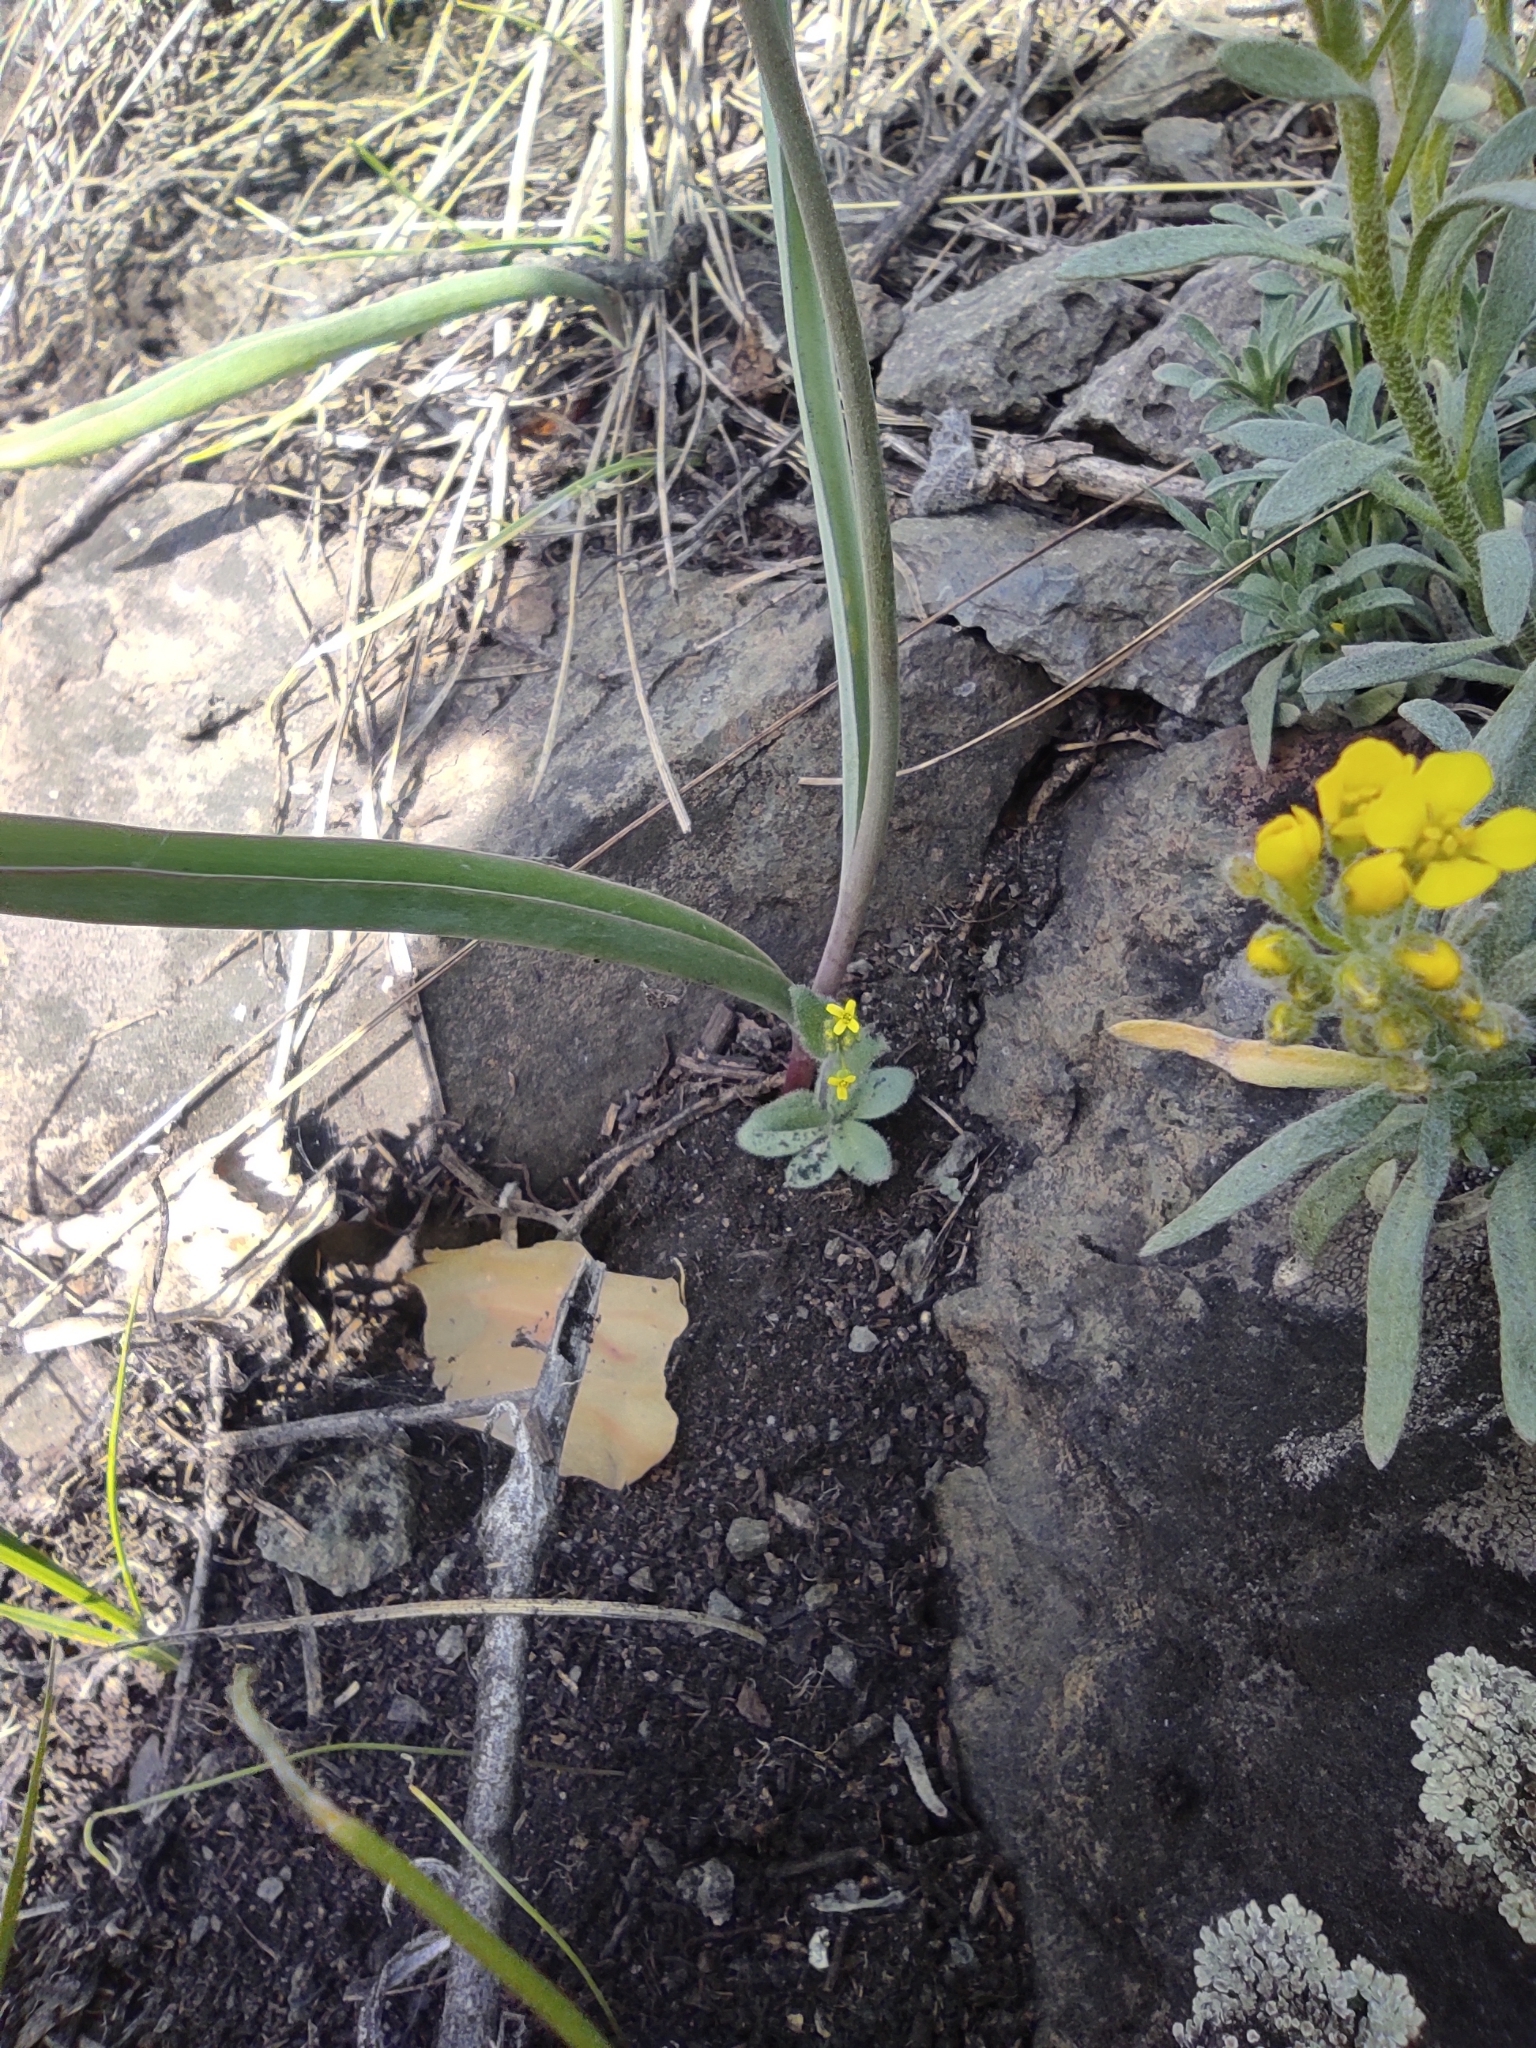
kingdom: Plantae
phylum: Tracheophyta
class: Magnoliopsida
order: Brassicales
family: Brassicaceae
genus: Alyssum
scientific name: Alyssum lenense
